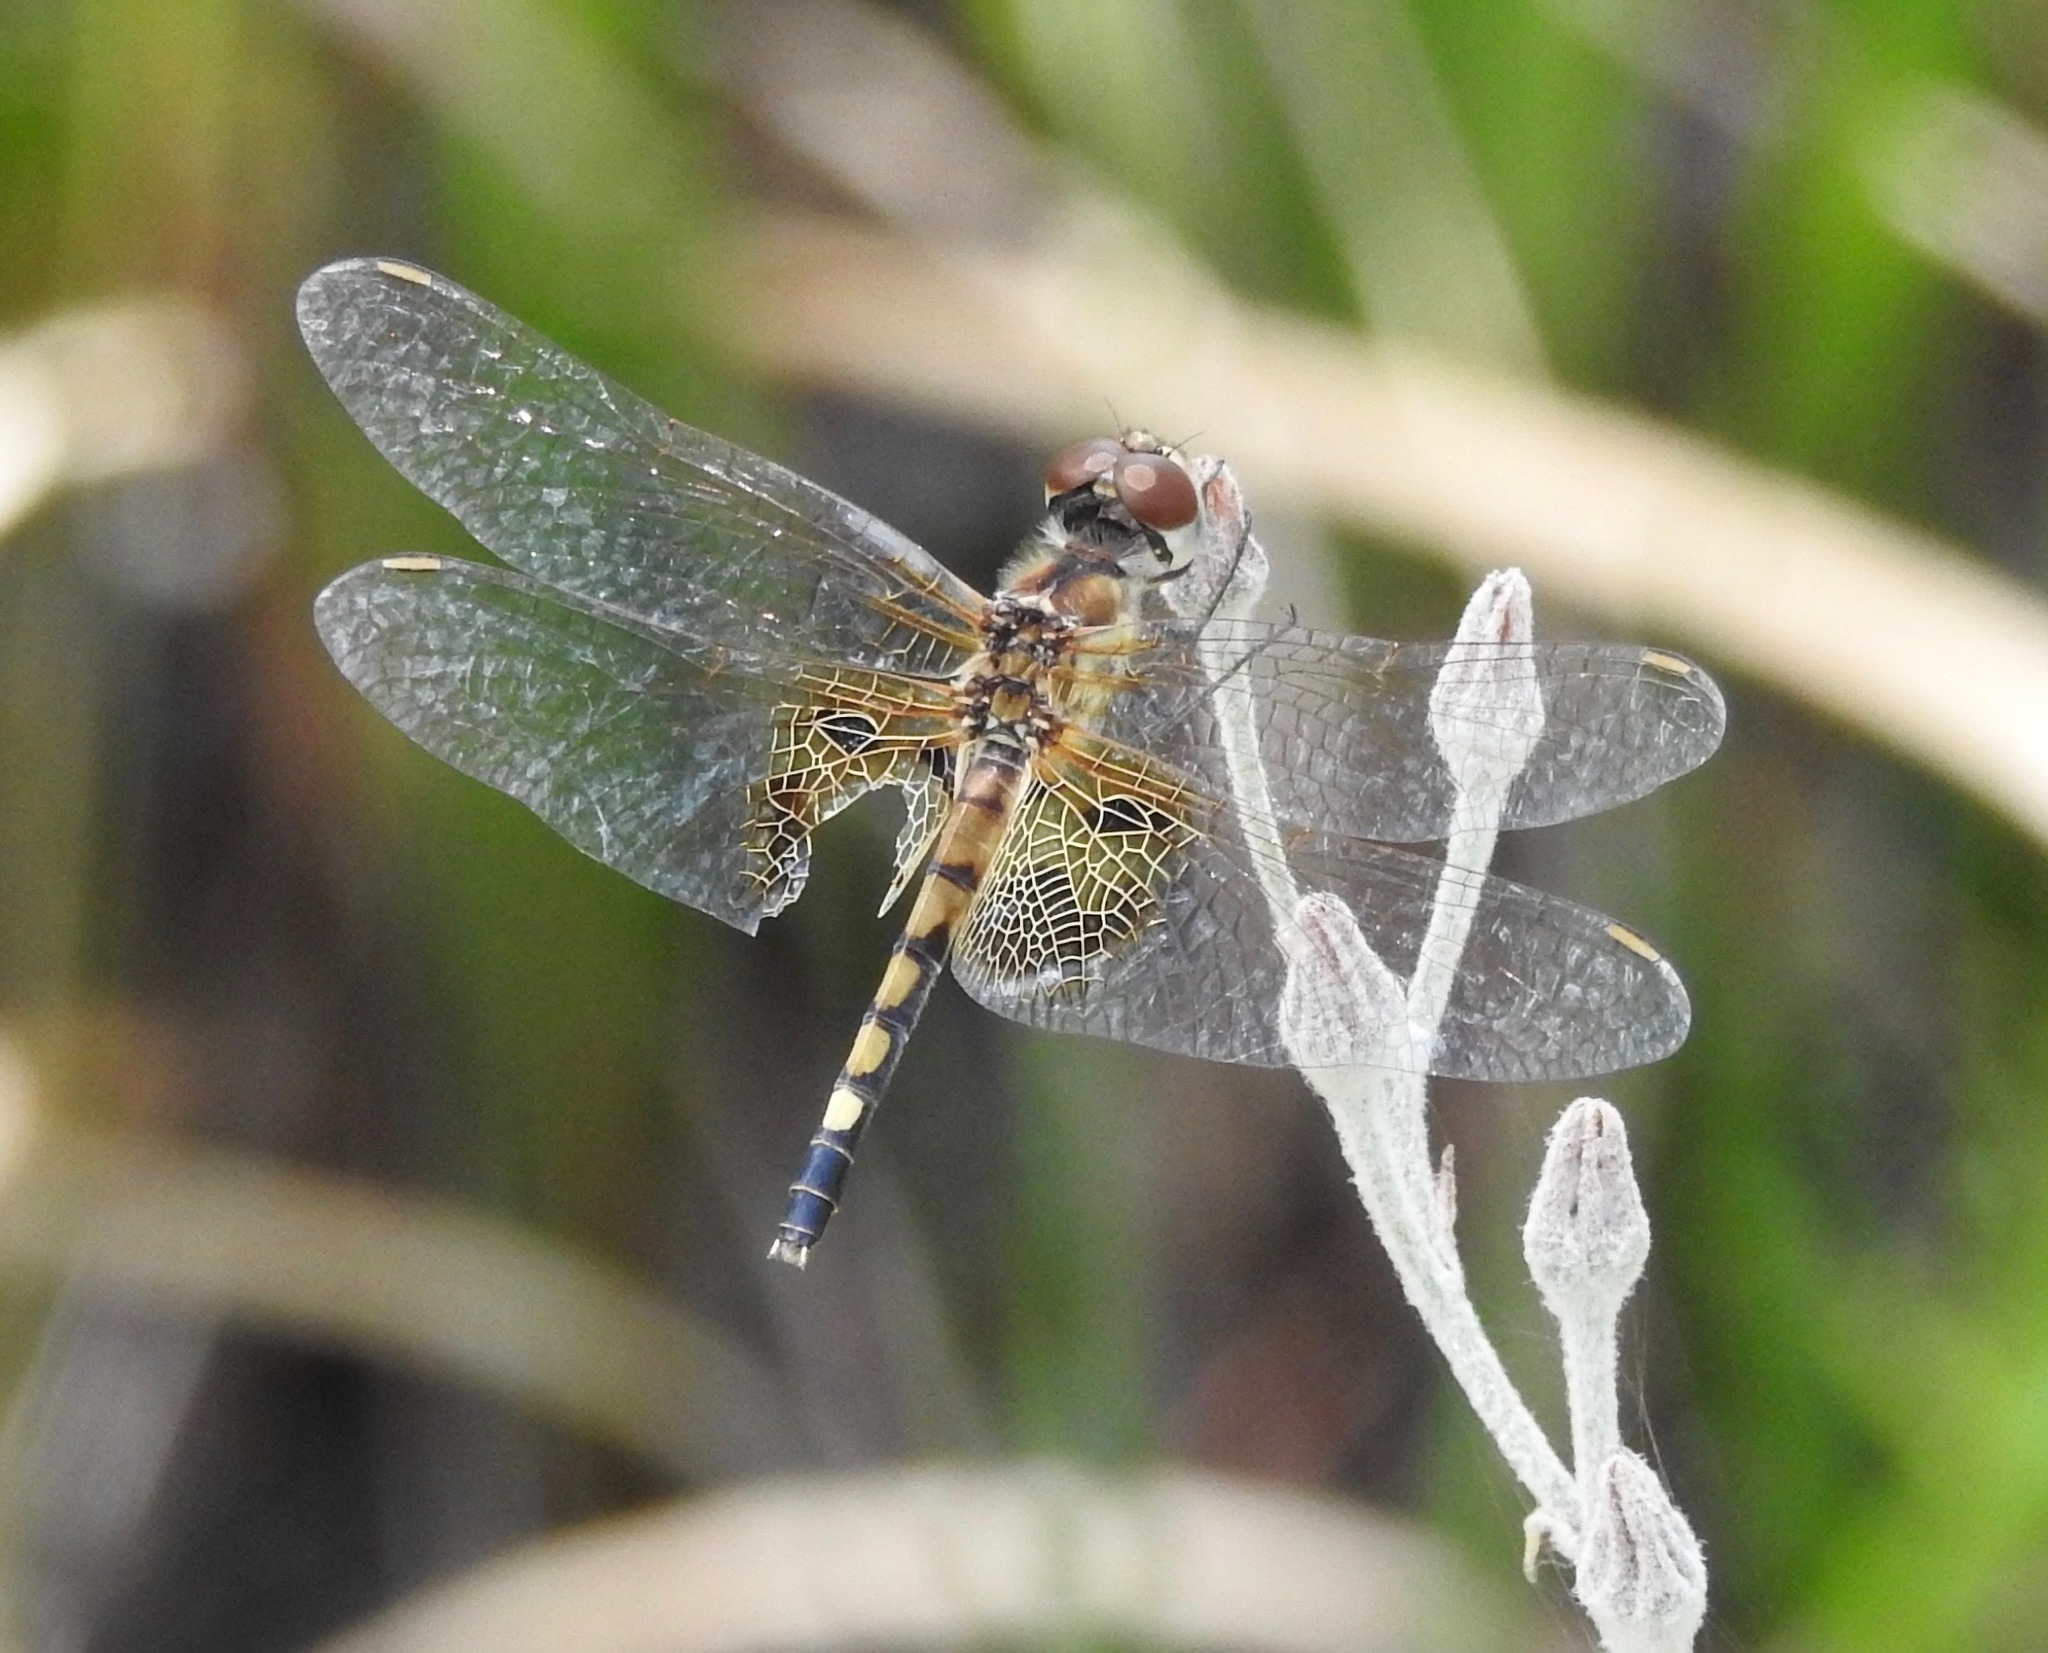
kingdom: Animalia
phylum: Arthropoda
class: Insecta
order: Odonata
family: Libellulidae
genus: Celithemis
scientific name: Celithemis amanda
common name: Amanda's pennant
